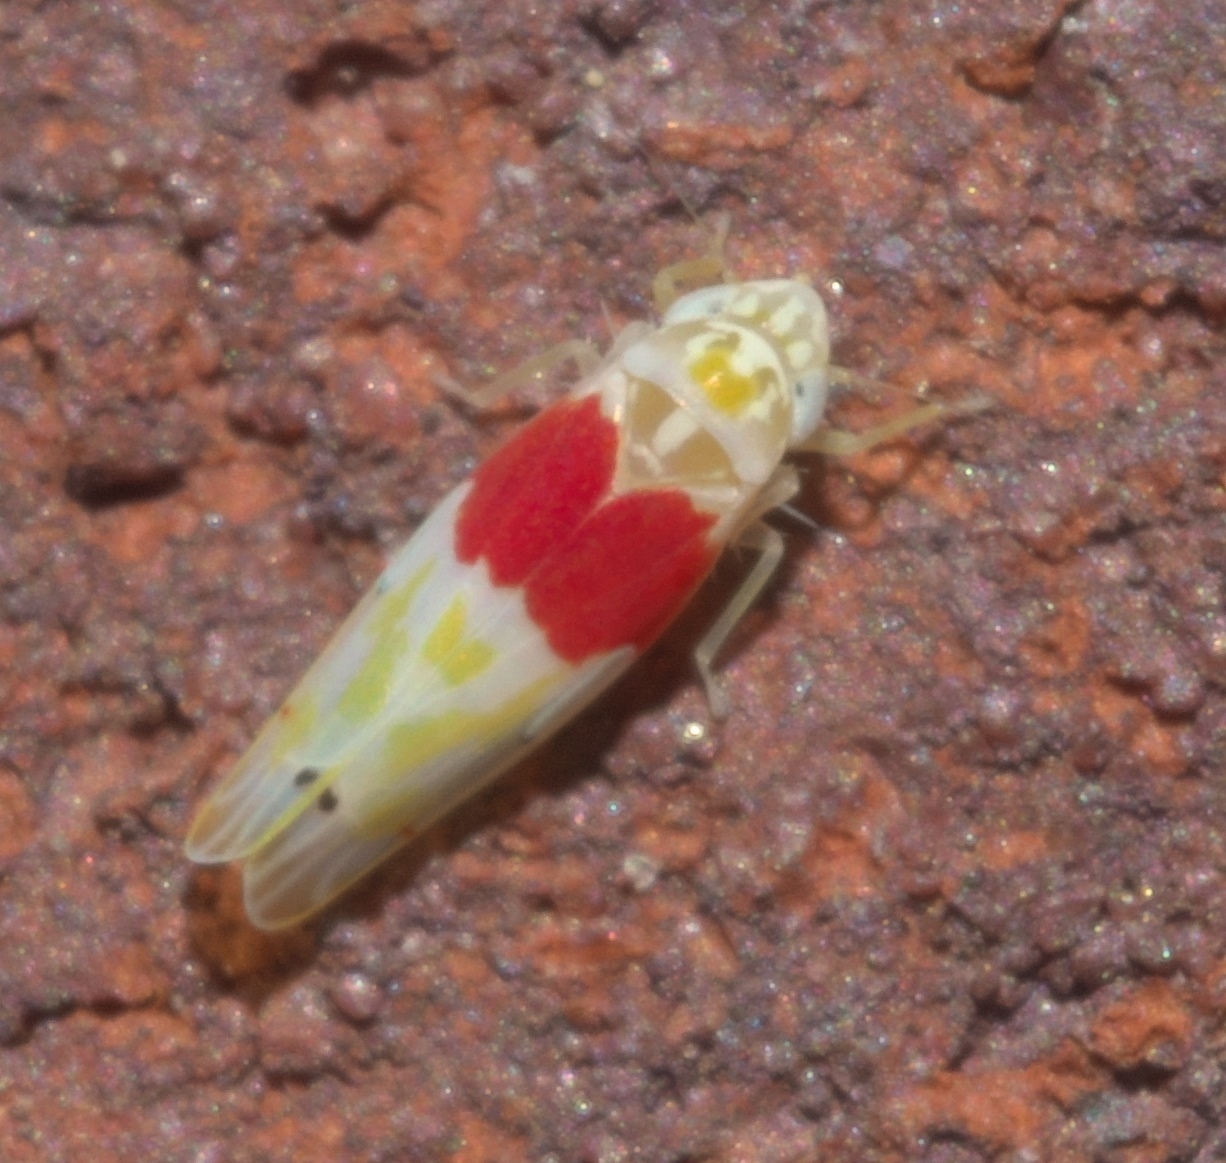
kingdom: Animalia
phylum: Arthropoda
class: Insecta
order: Hemiptera
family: Cicadellidae
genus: Eratoneura
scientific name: Eratoneura osborni
